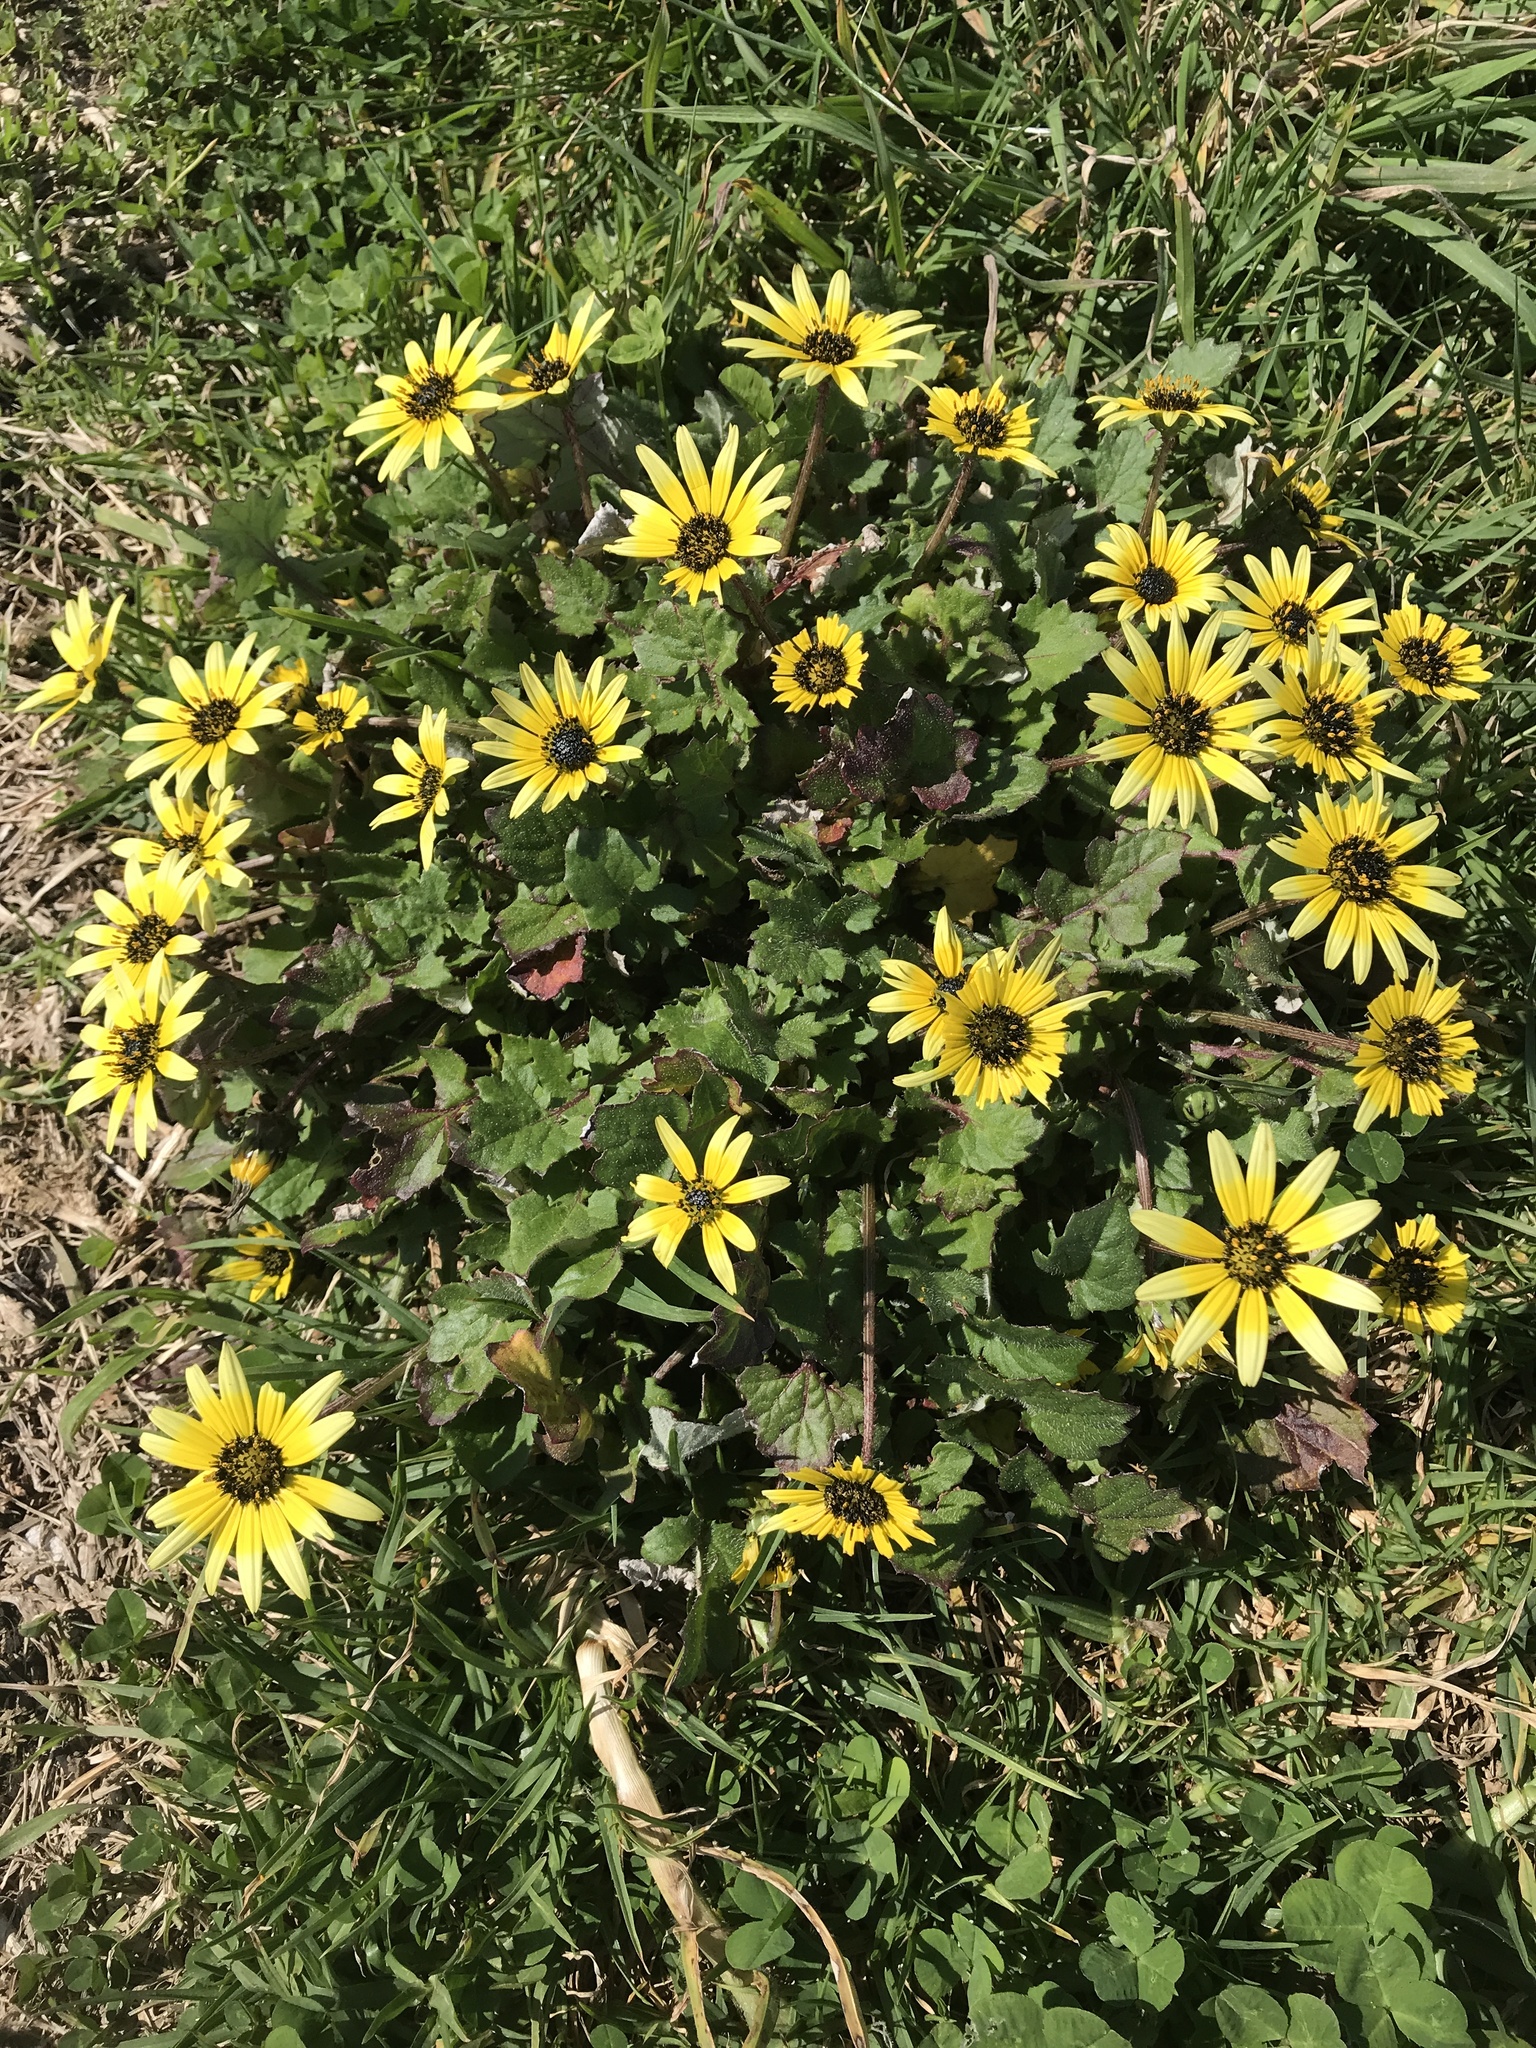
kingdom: Plantae
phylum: Tracheophyta
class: Magnoliopsida
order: Asterales
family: Asteraceae
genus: Arctotheca
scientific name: Arctotheca calendula
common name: Capeweed
